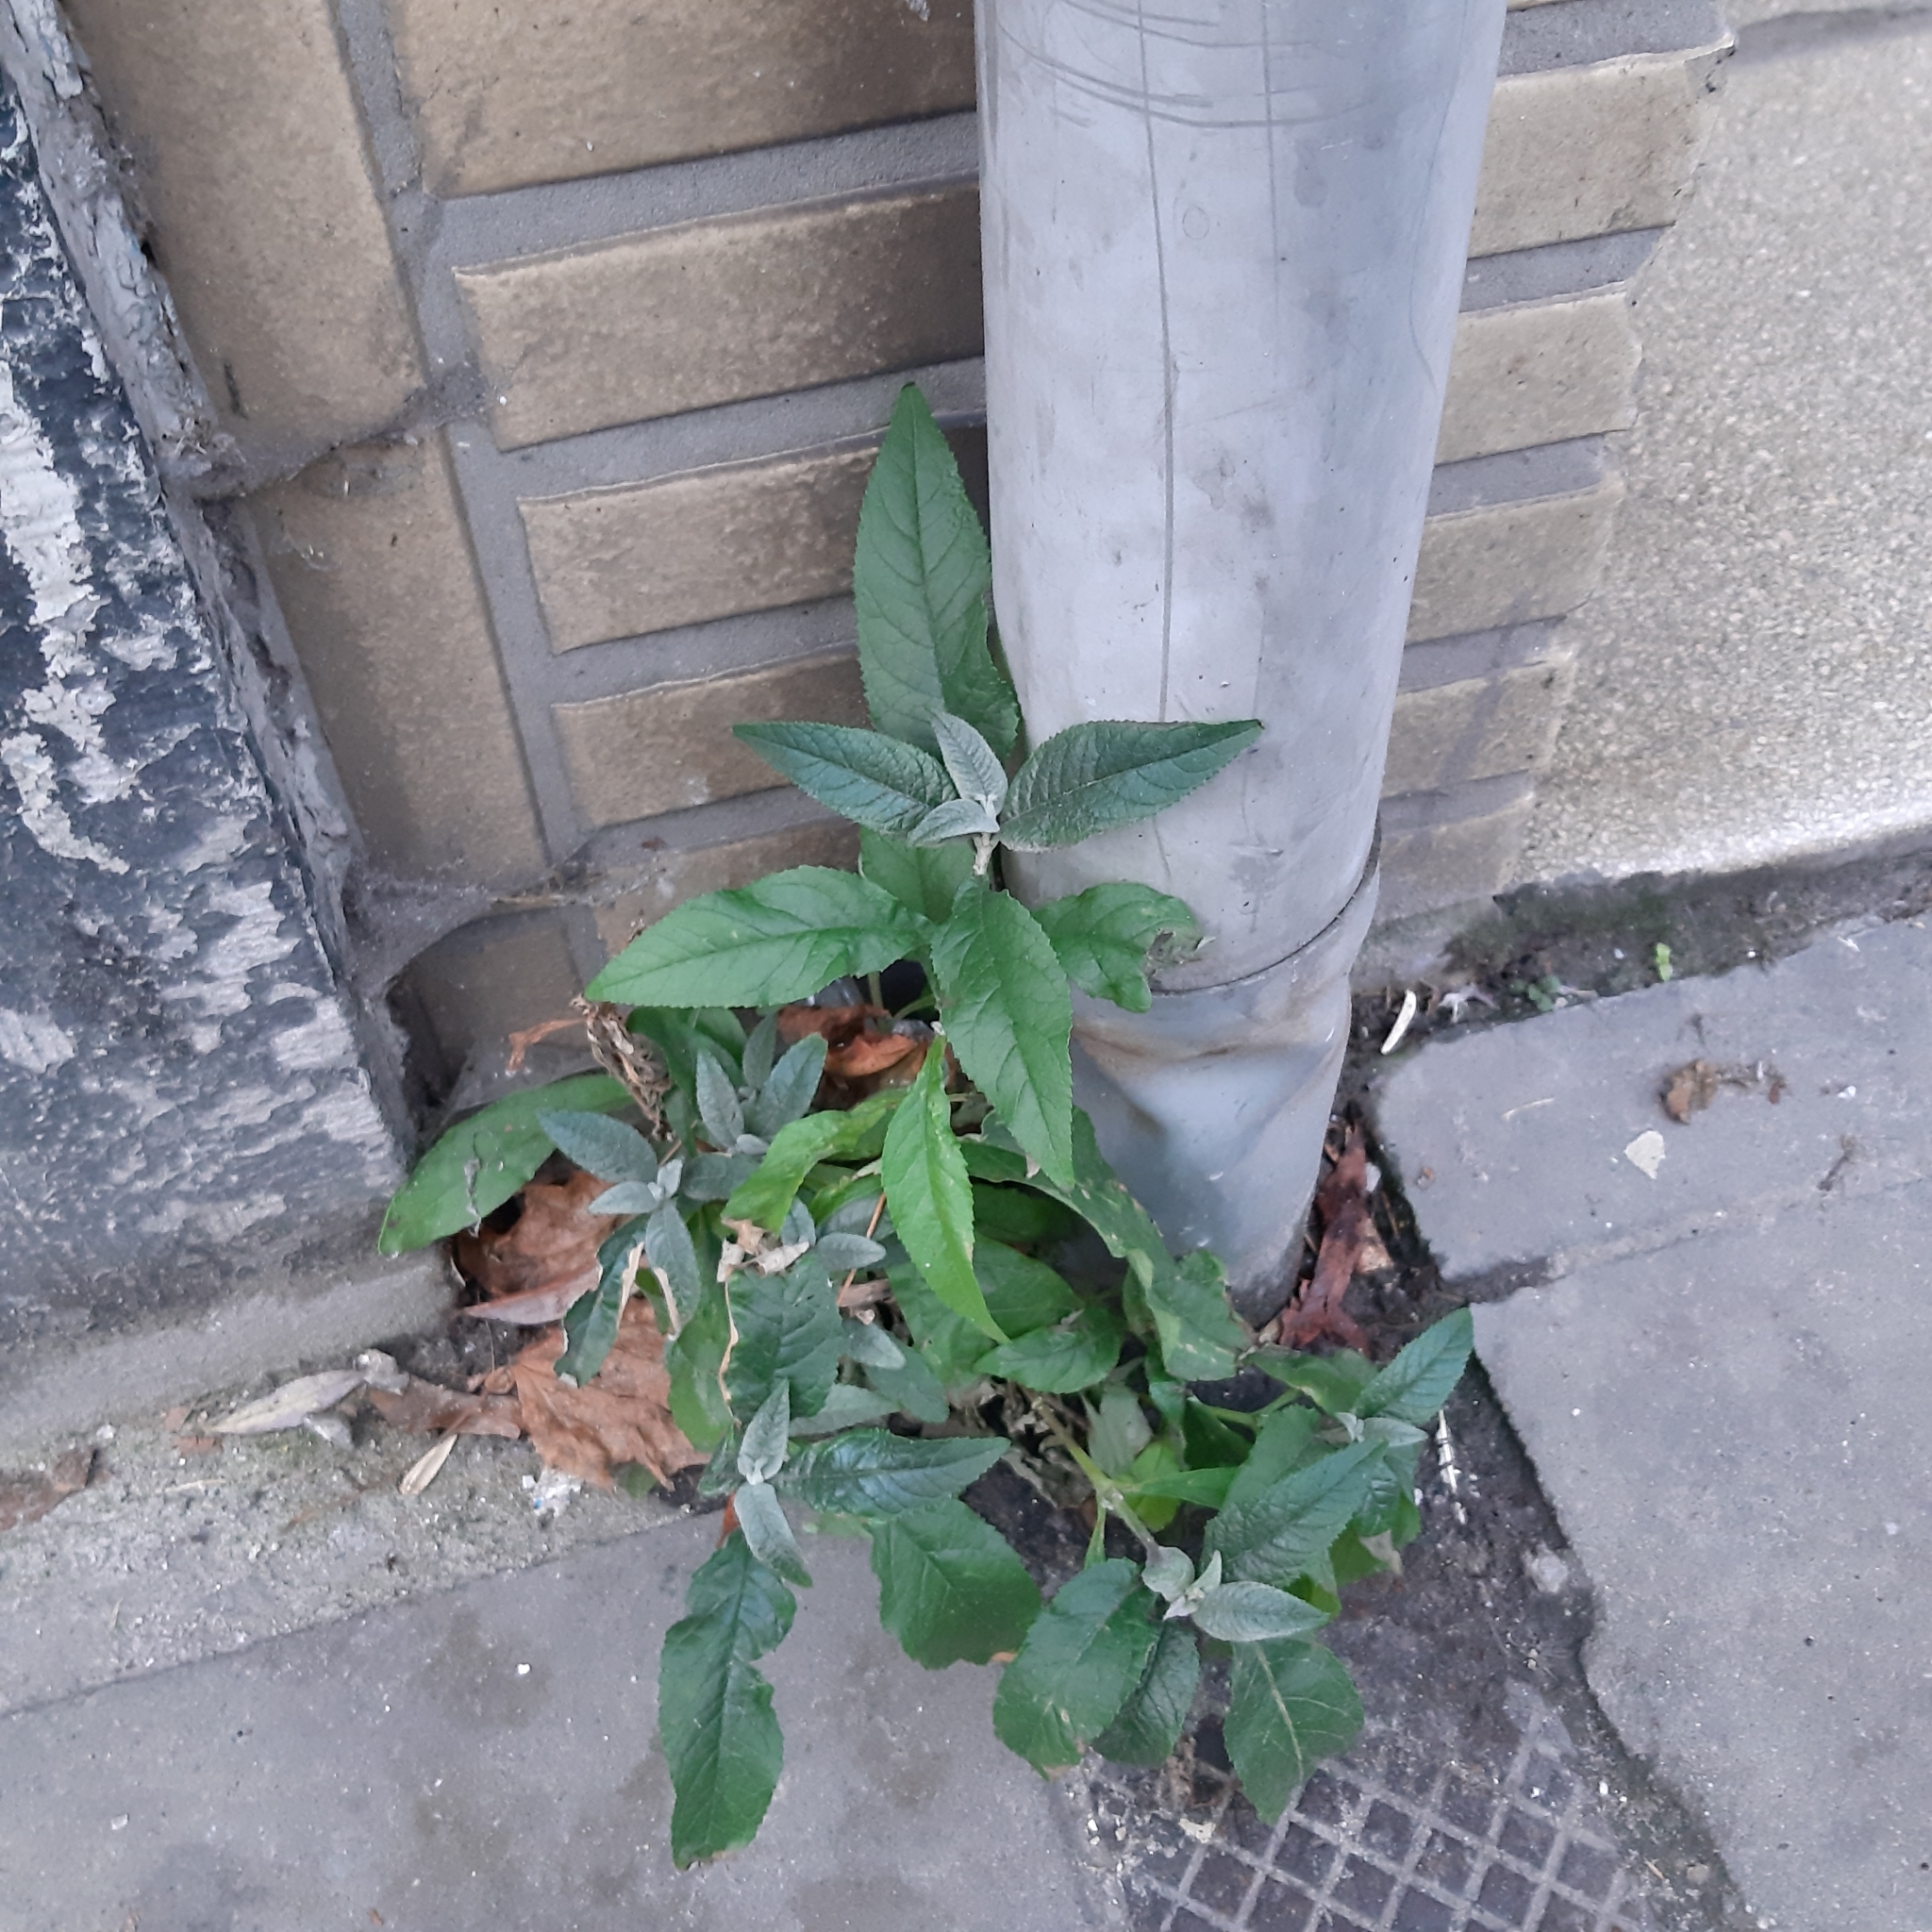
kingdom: Plantae
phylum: Tracheophyta
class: Magnoliopsida
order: Lamiales
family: Scrophulariaceae
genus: Buddleja
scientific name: Buddleja davidii
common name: Butterfly-bush
